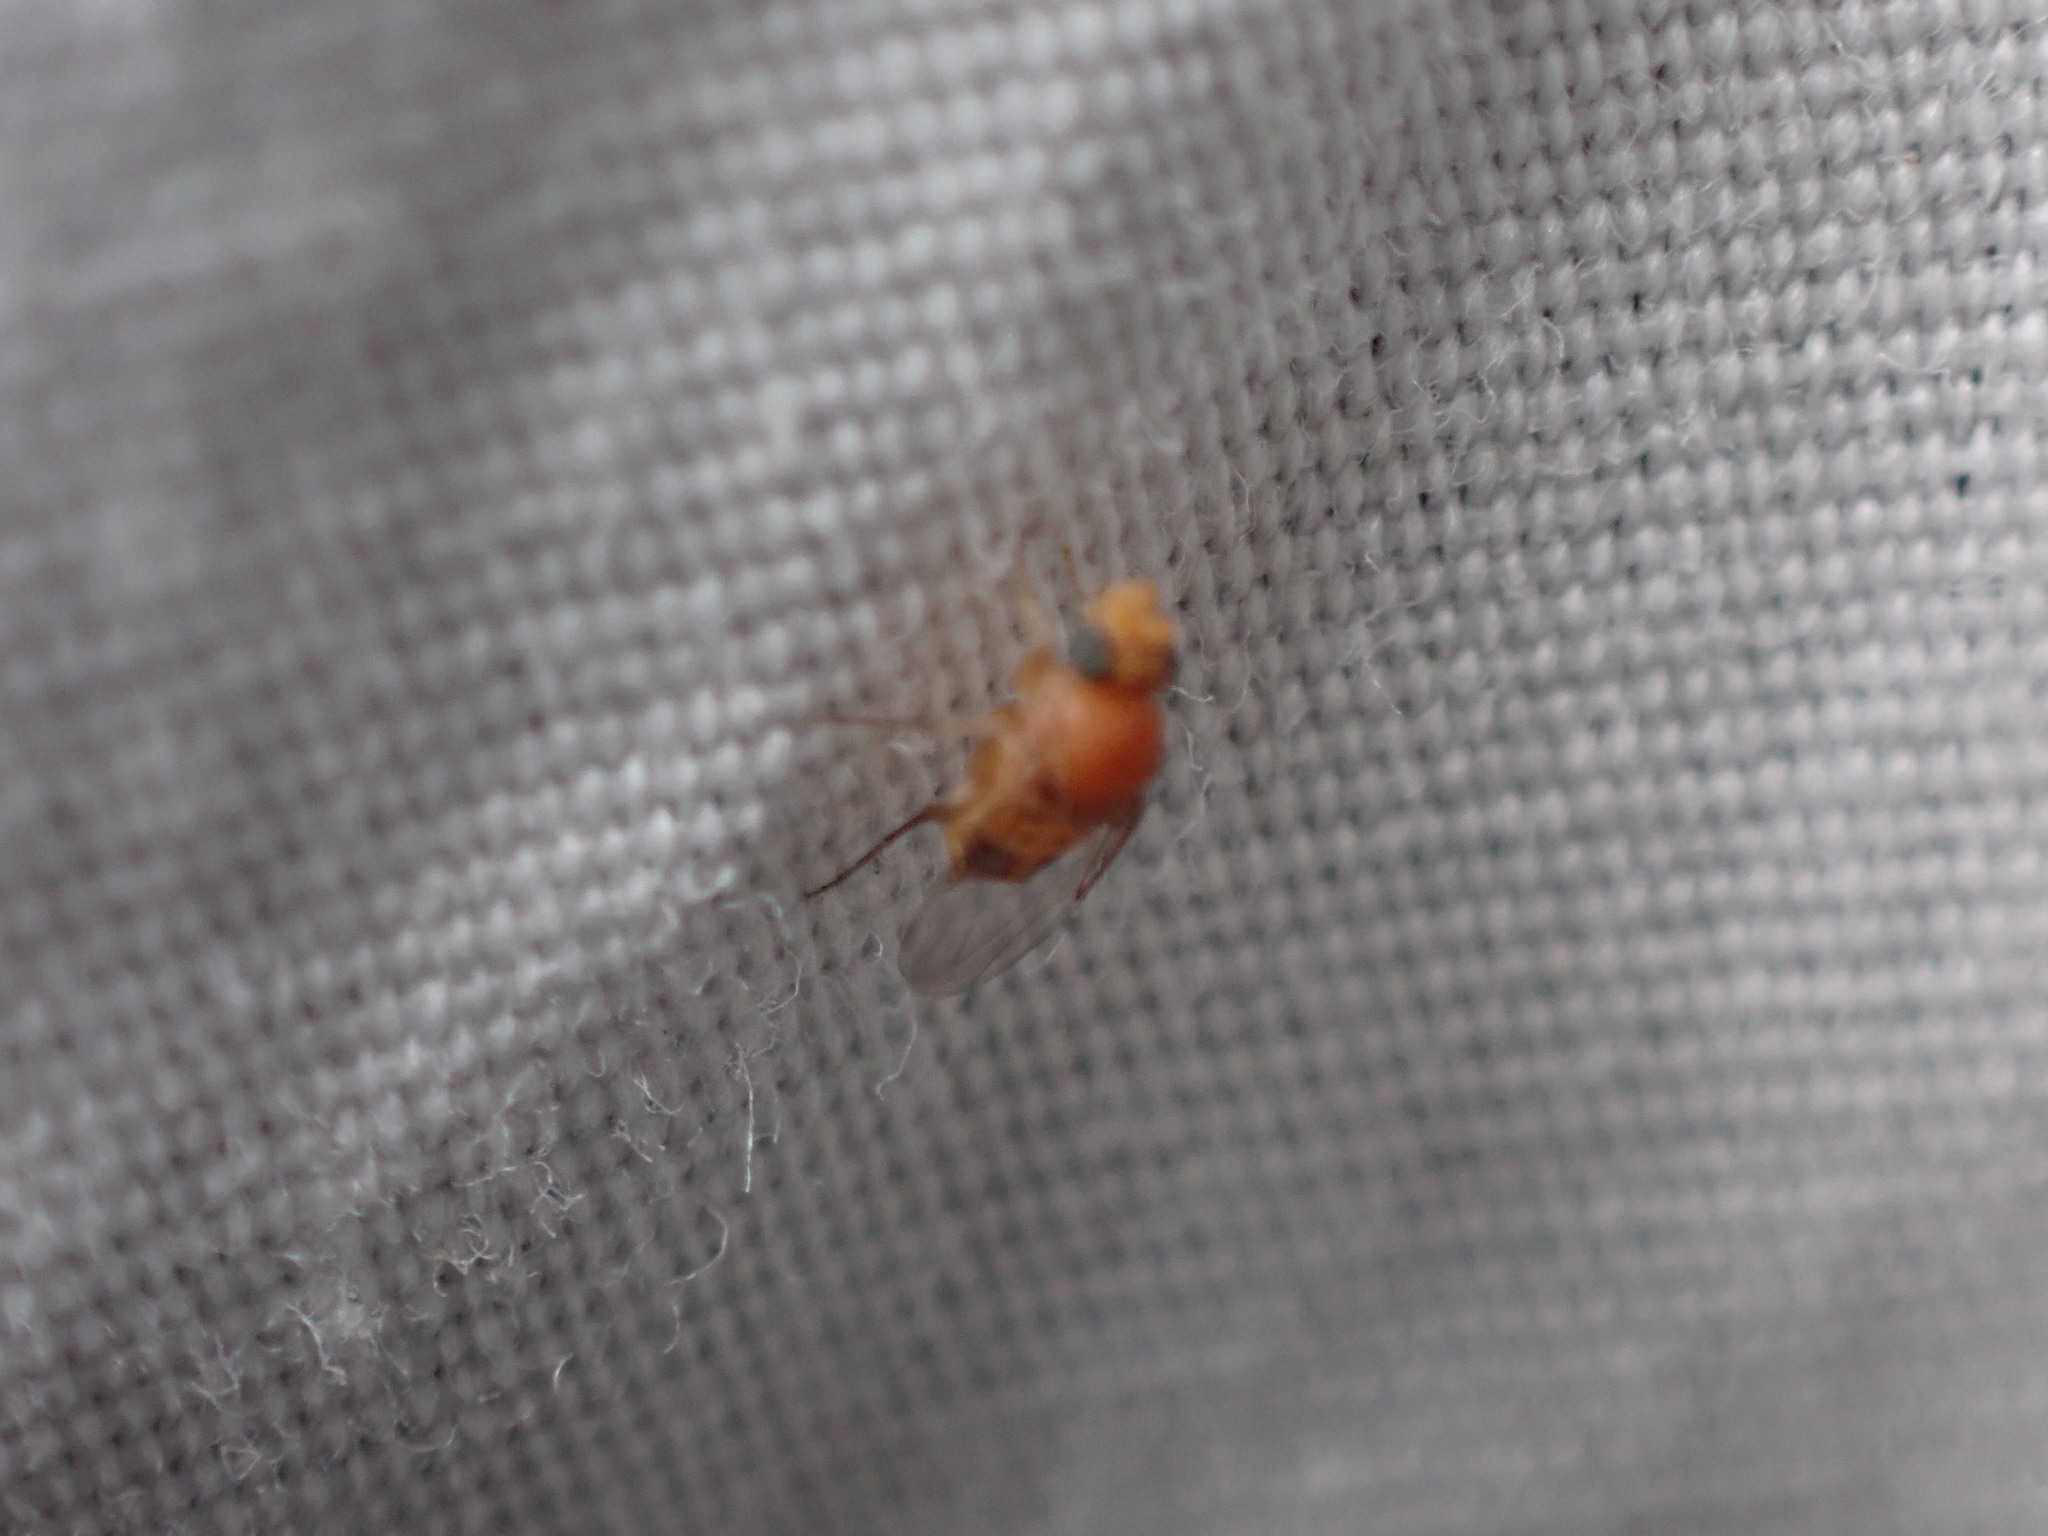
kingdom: Animalia
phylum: Arthropoda
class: Insecta
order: Diptera
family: Phoridae
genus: Apocephalus
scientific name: Apocephalus borealis
